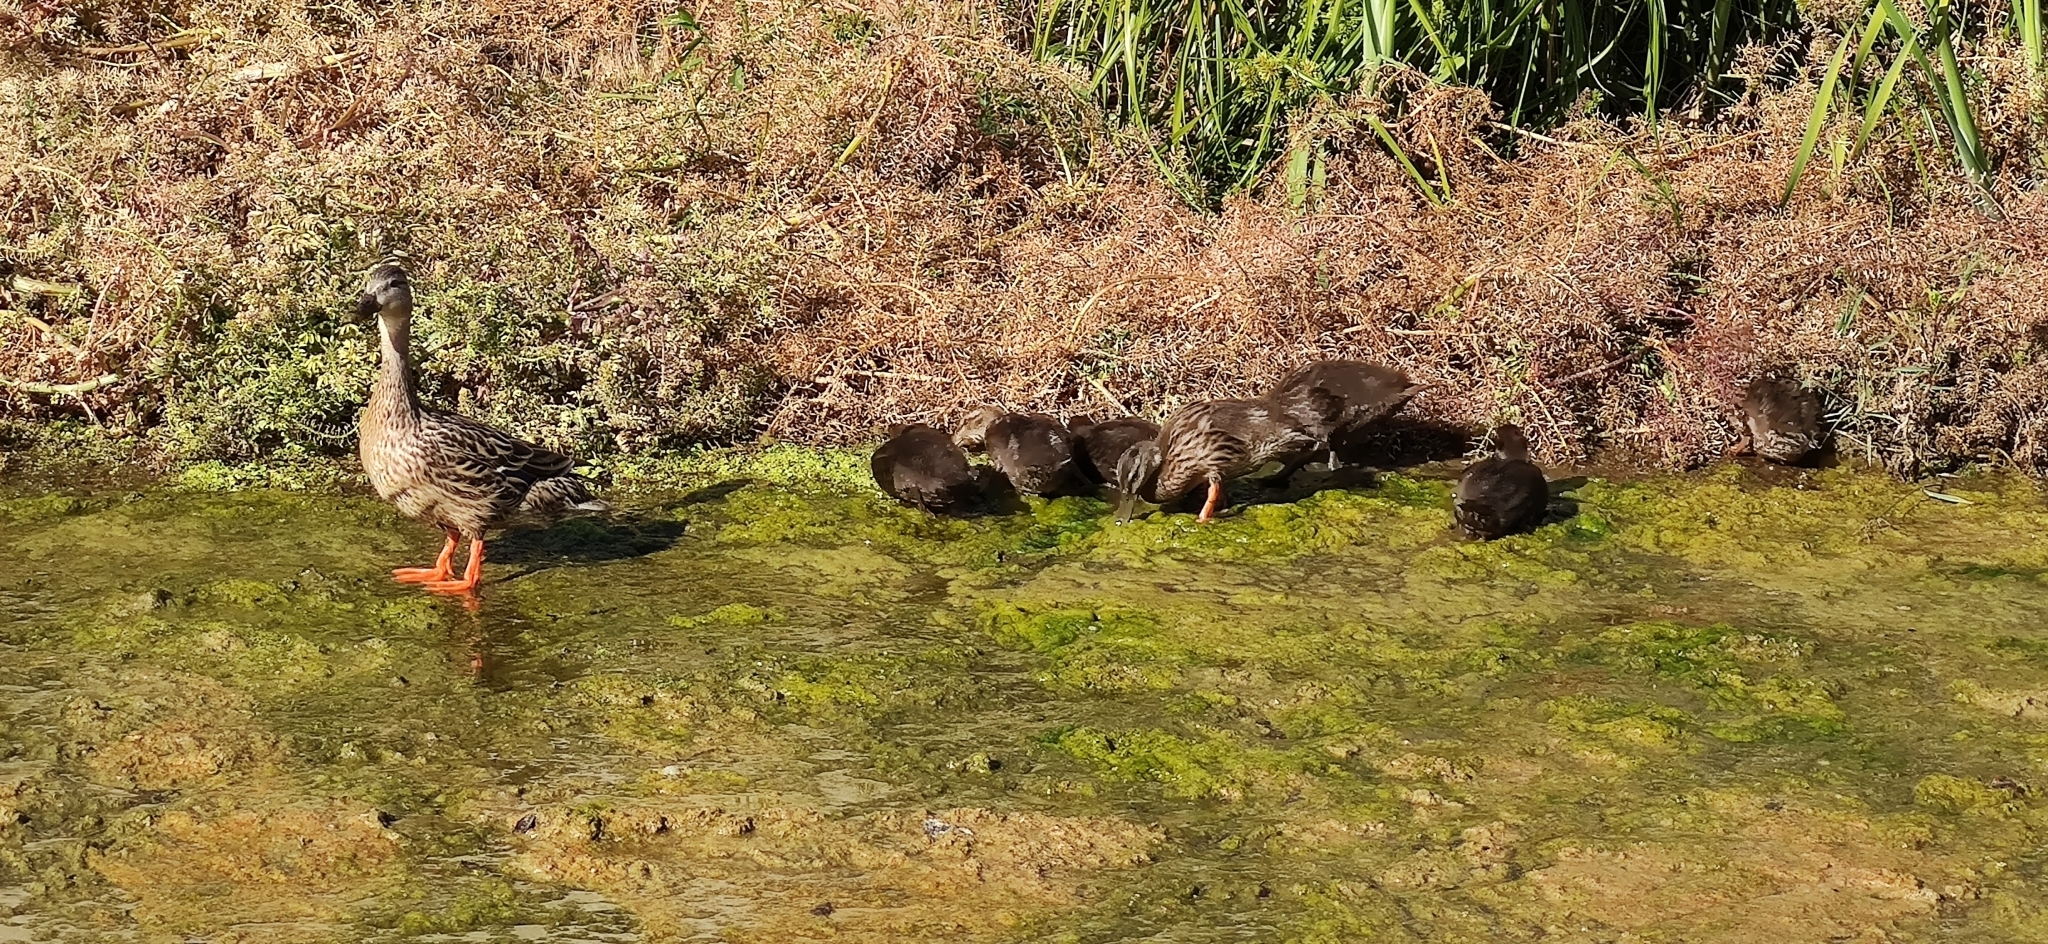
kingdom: Animalia
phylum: Chordata
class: Aves
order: Anseriformes
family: Anatidae
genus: Anas
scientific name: Anas platyrhynchos
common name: Mallard
